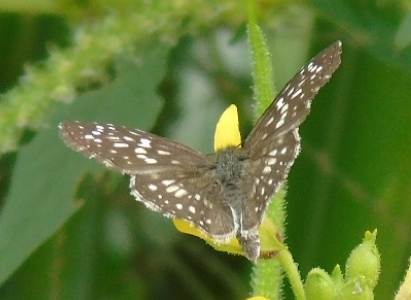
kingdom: Animalia
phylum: Arthropoda
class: Insecta
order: Lepidoptera
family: Hesperiidae
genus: Burnsius
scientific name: Burnsius
